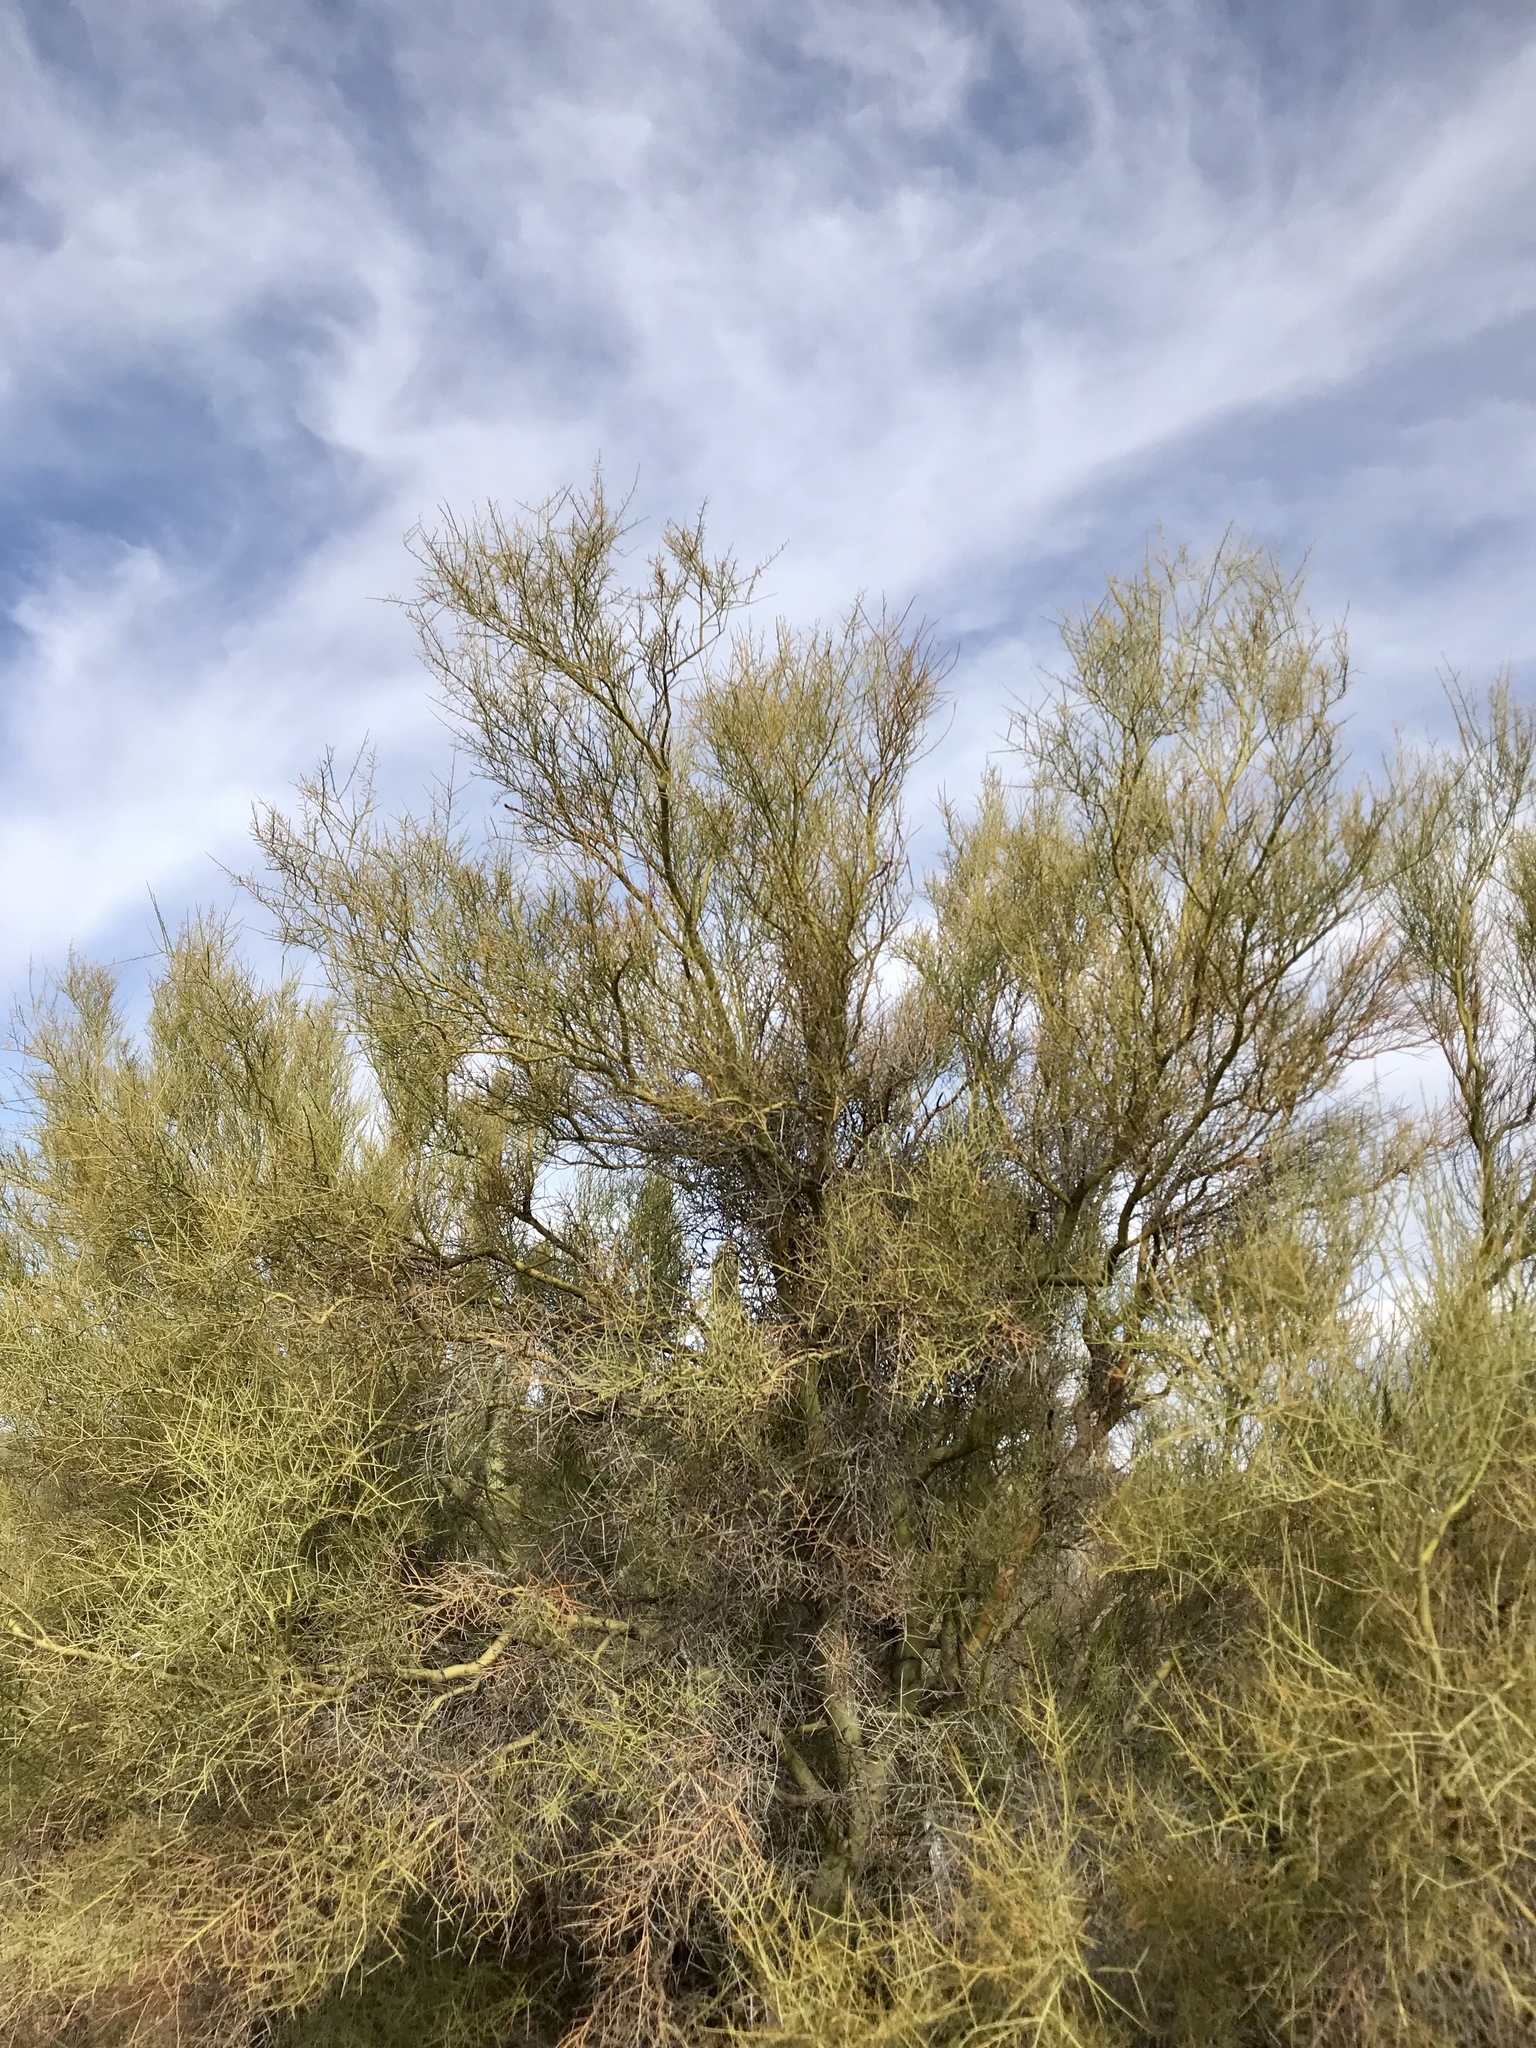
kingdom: Plantae
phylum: Tracheophyta
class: Magnoliopsida
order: Fabales
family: Fabaceae
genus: Parkinsonia
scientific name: Parkinsonia microphylla
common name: Yellow paloverde
